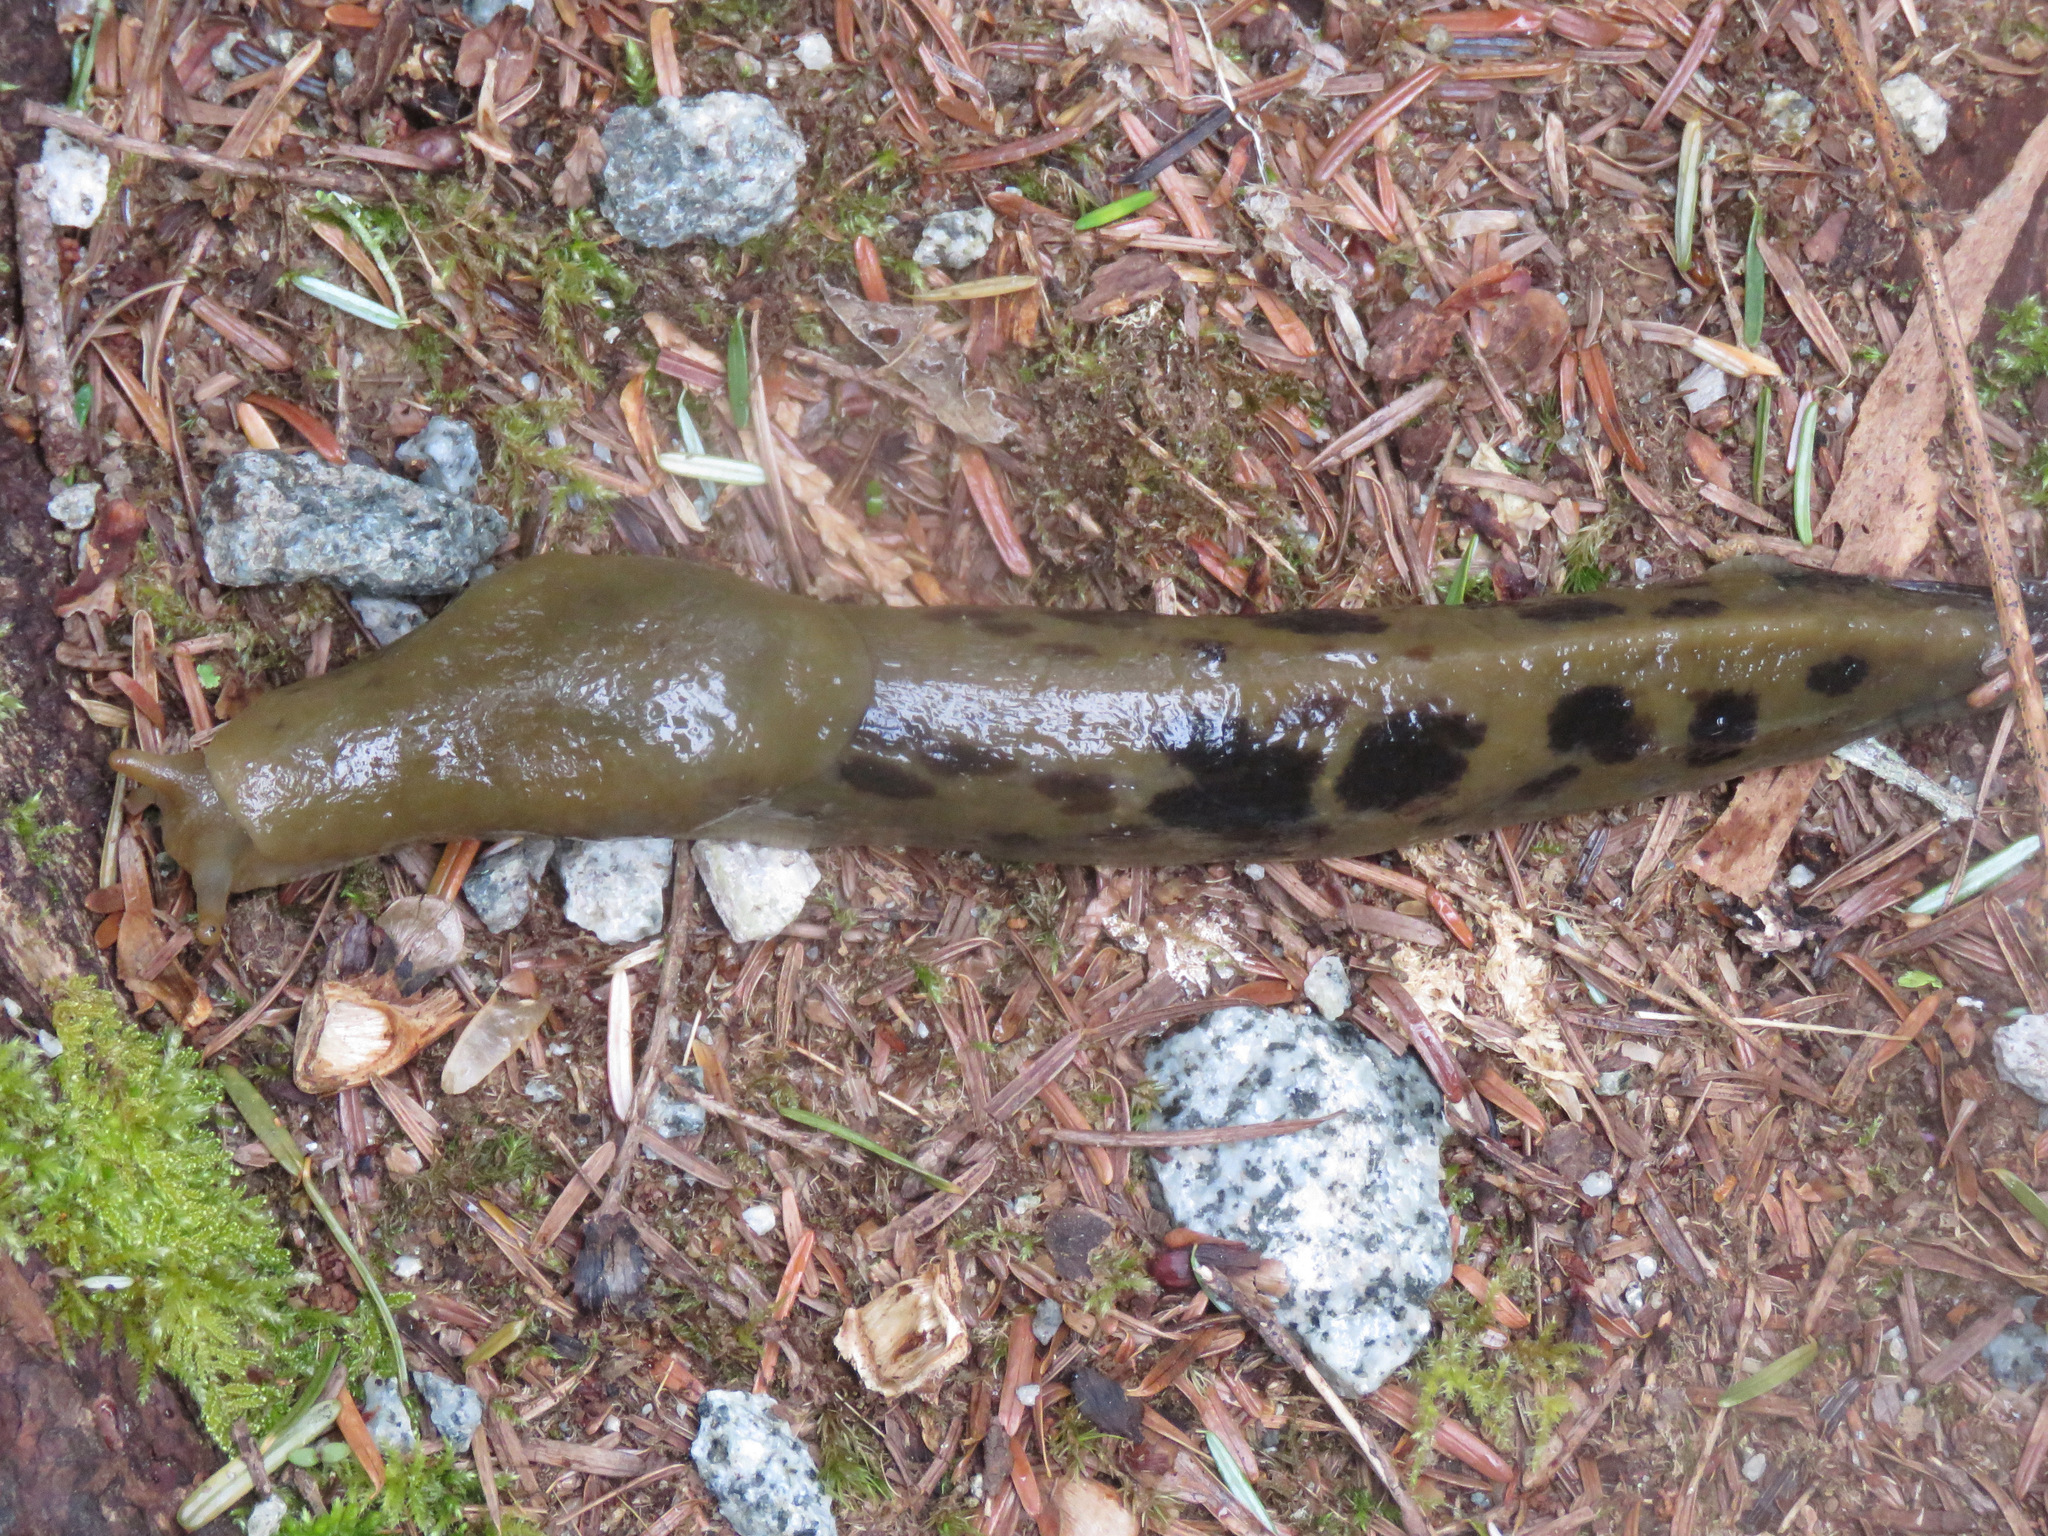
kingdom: Animalia
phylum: Mollusca
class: Gastropoda
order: Stylommatophora
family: Ariolimacidae
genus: Ariolimax
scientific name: Ariolimax columbianus
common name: Pacific banana slug
